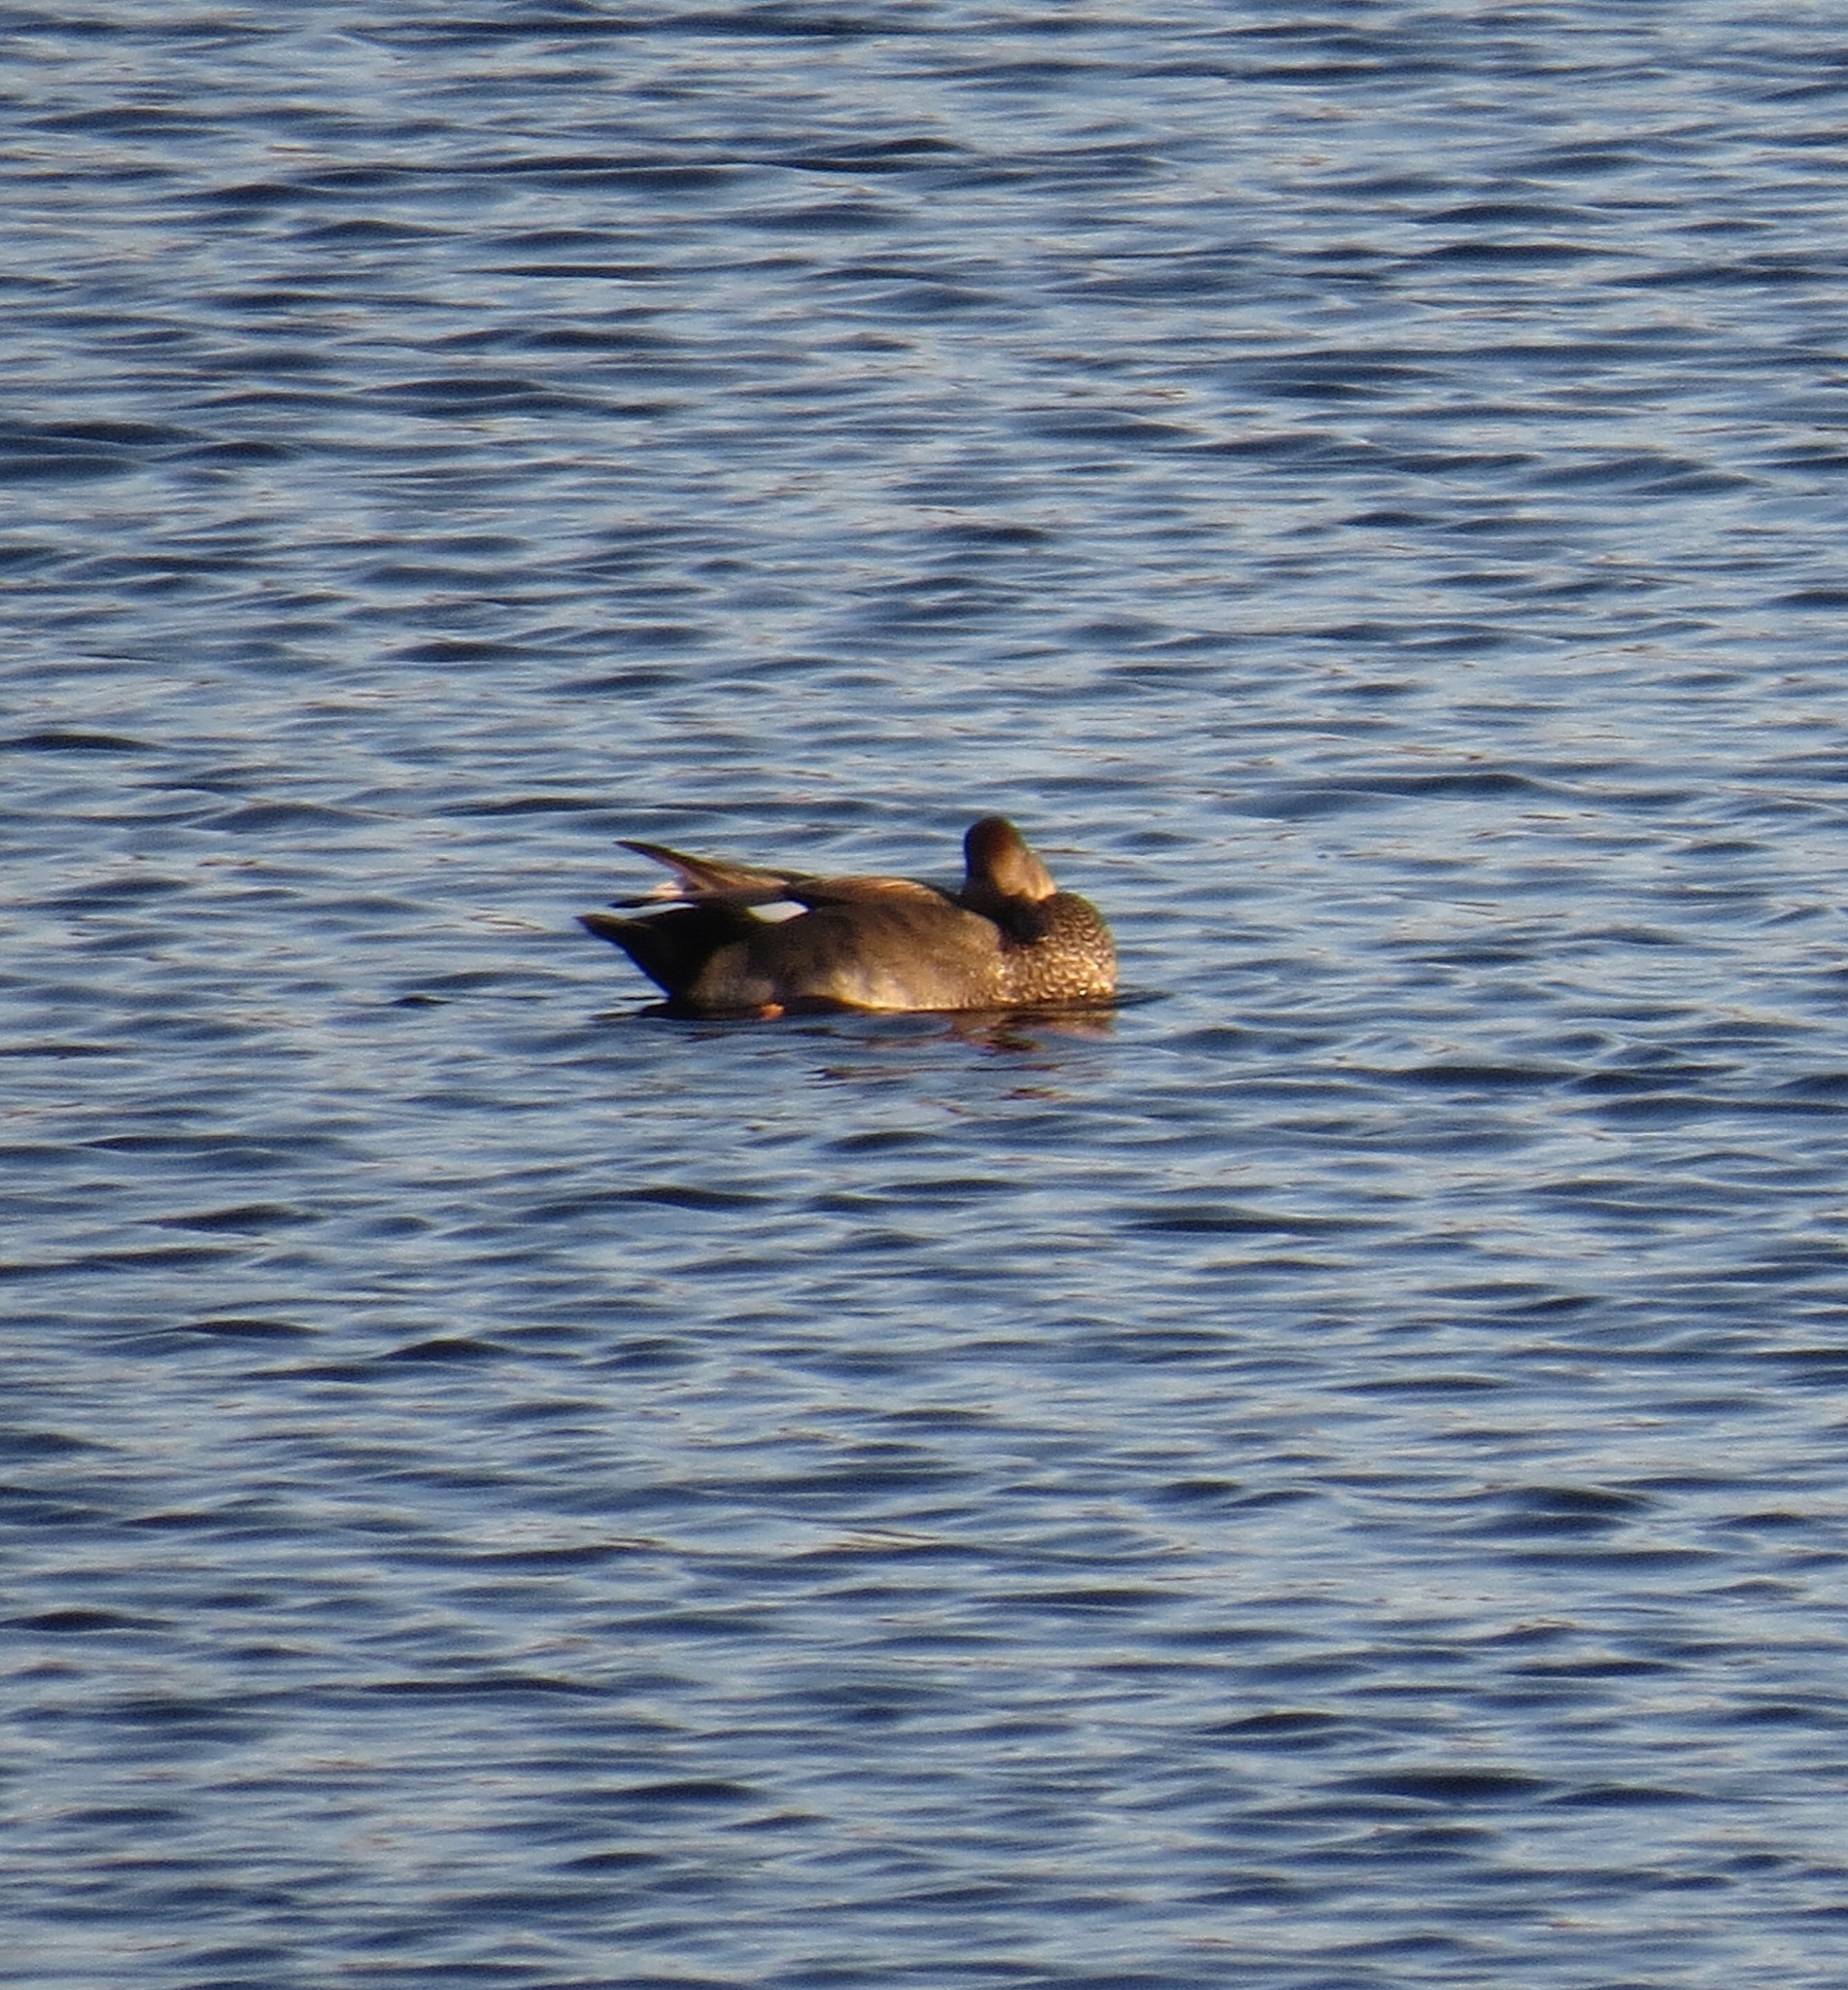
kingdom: Animalia
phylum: Chordata
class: Aves
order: Anseriformes
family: Anatidae
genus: Mareca
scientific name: Mareca strepera
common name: Gadwall
